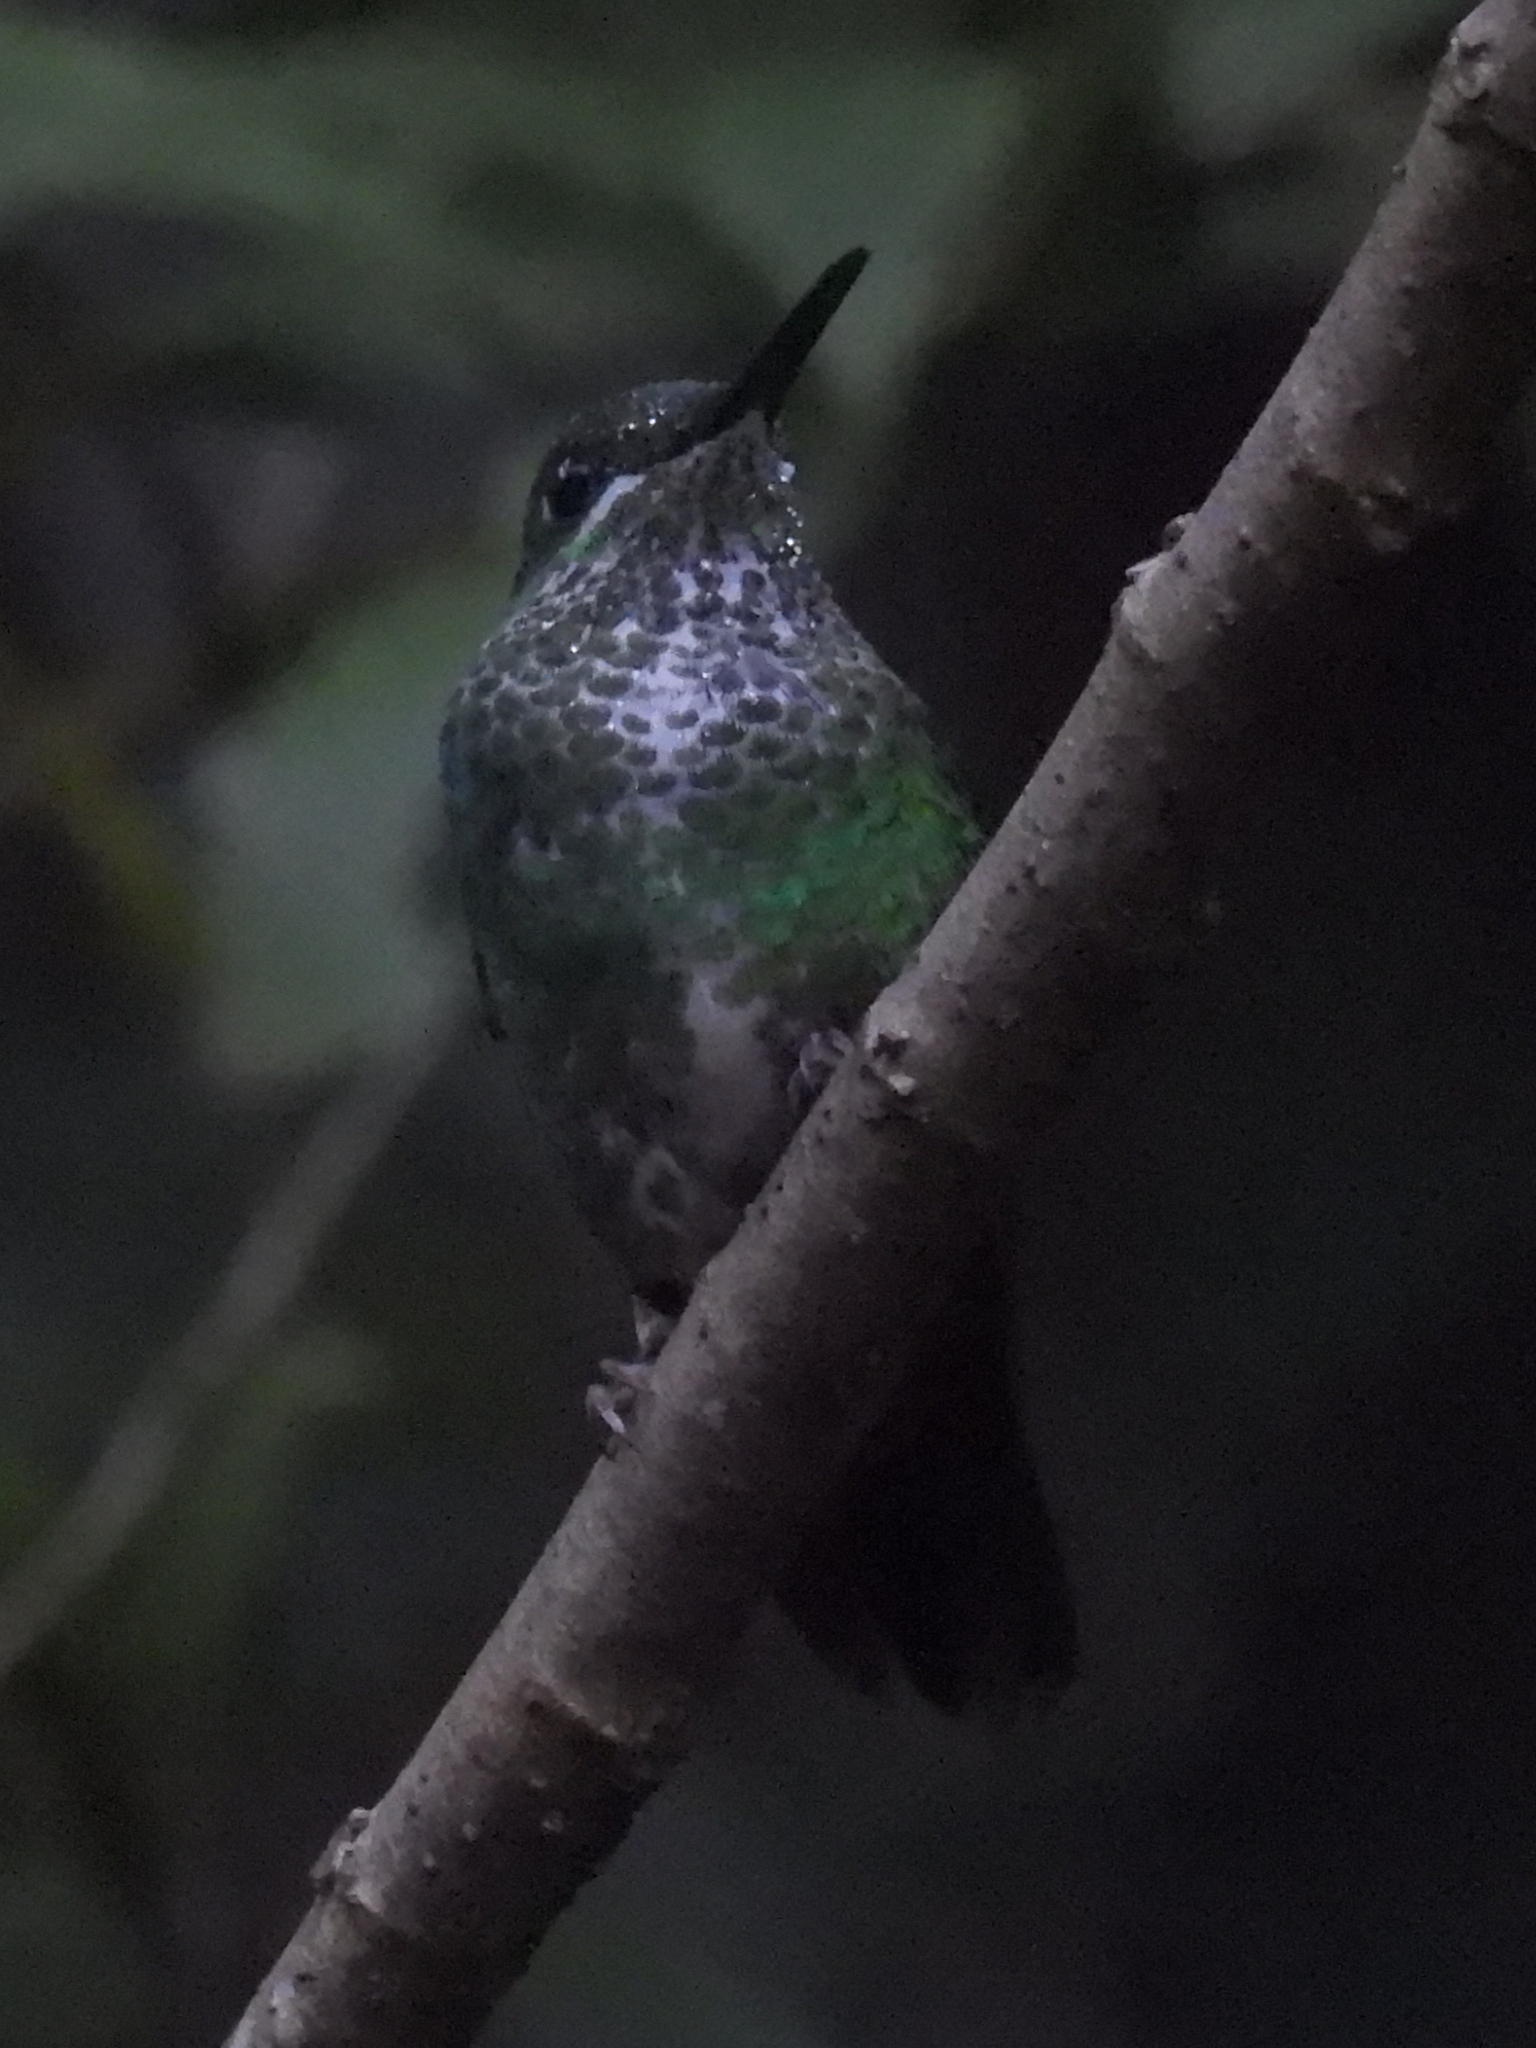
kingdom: Animalia
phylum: Chordata
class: Aves
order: Apodiformes
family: Trochilidae
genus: Heliodoxa
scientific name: Heliodoxa jacula
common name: Green-crowned brilliant
